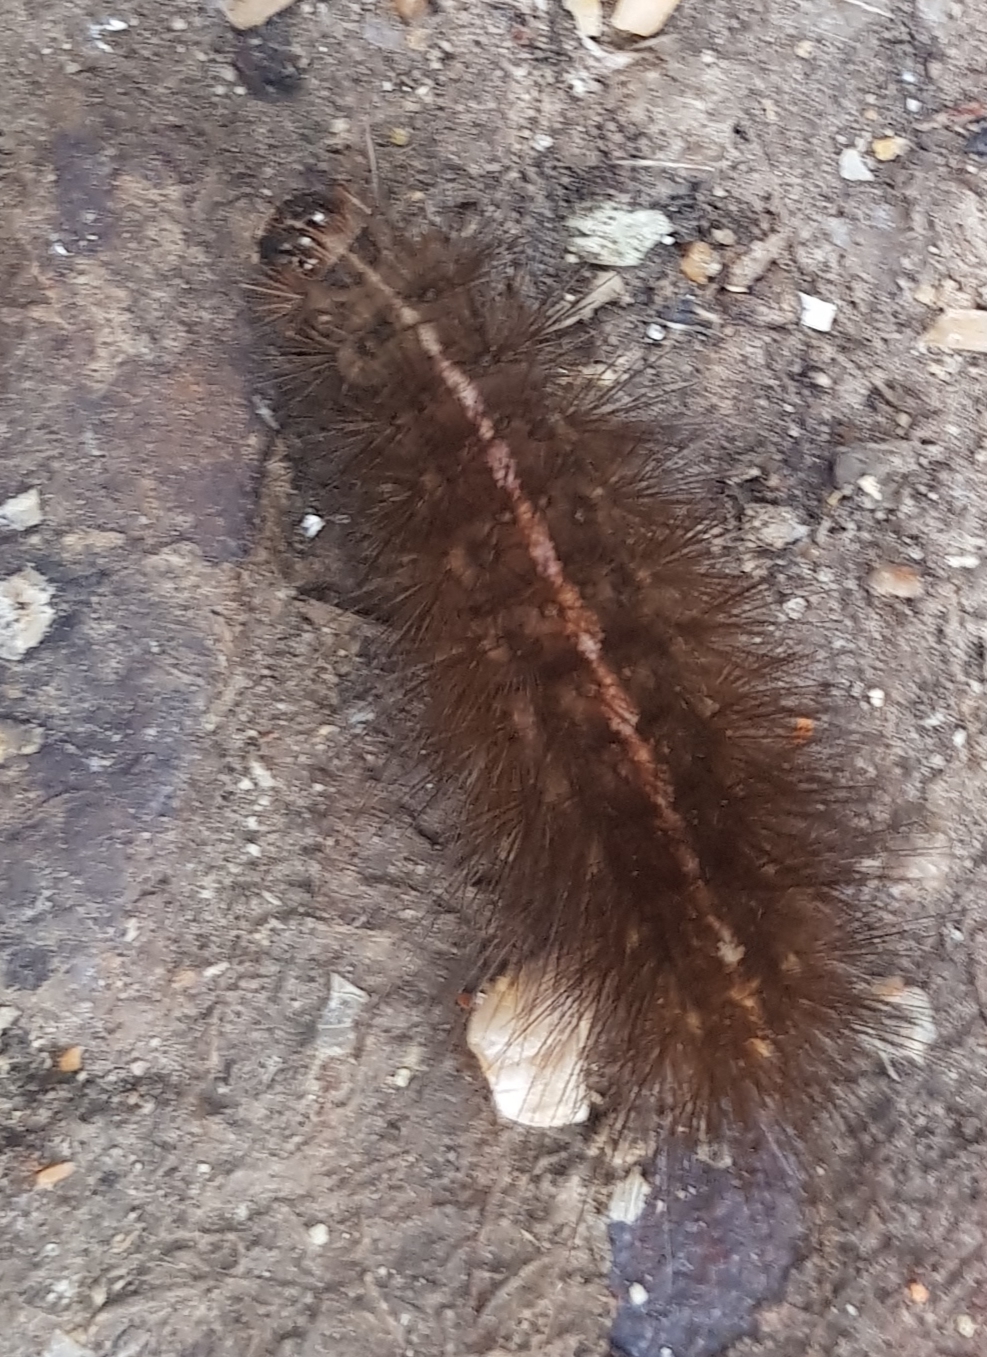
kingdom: Animalia
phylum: Arthropoda
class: Insecta
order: Lepidoptera
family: Erebidae
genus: Spilosoma
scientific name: Spilosoma lubricipeda
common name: White ermine
